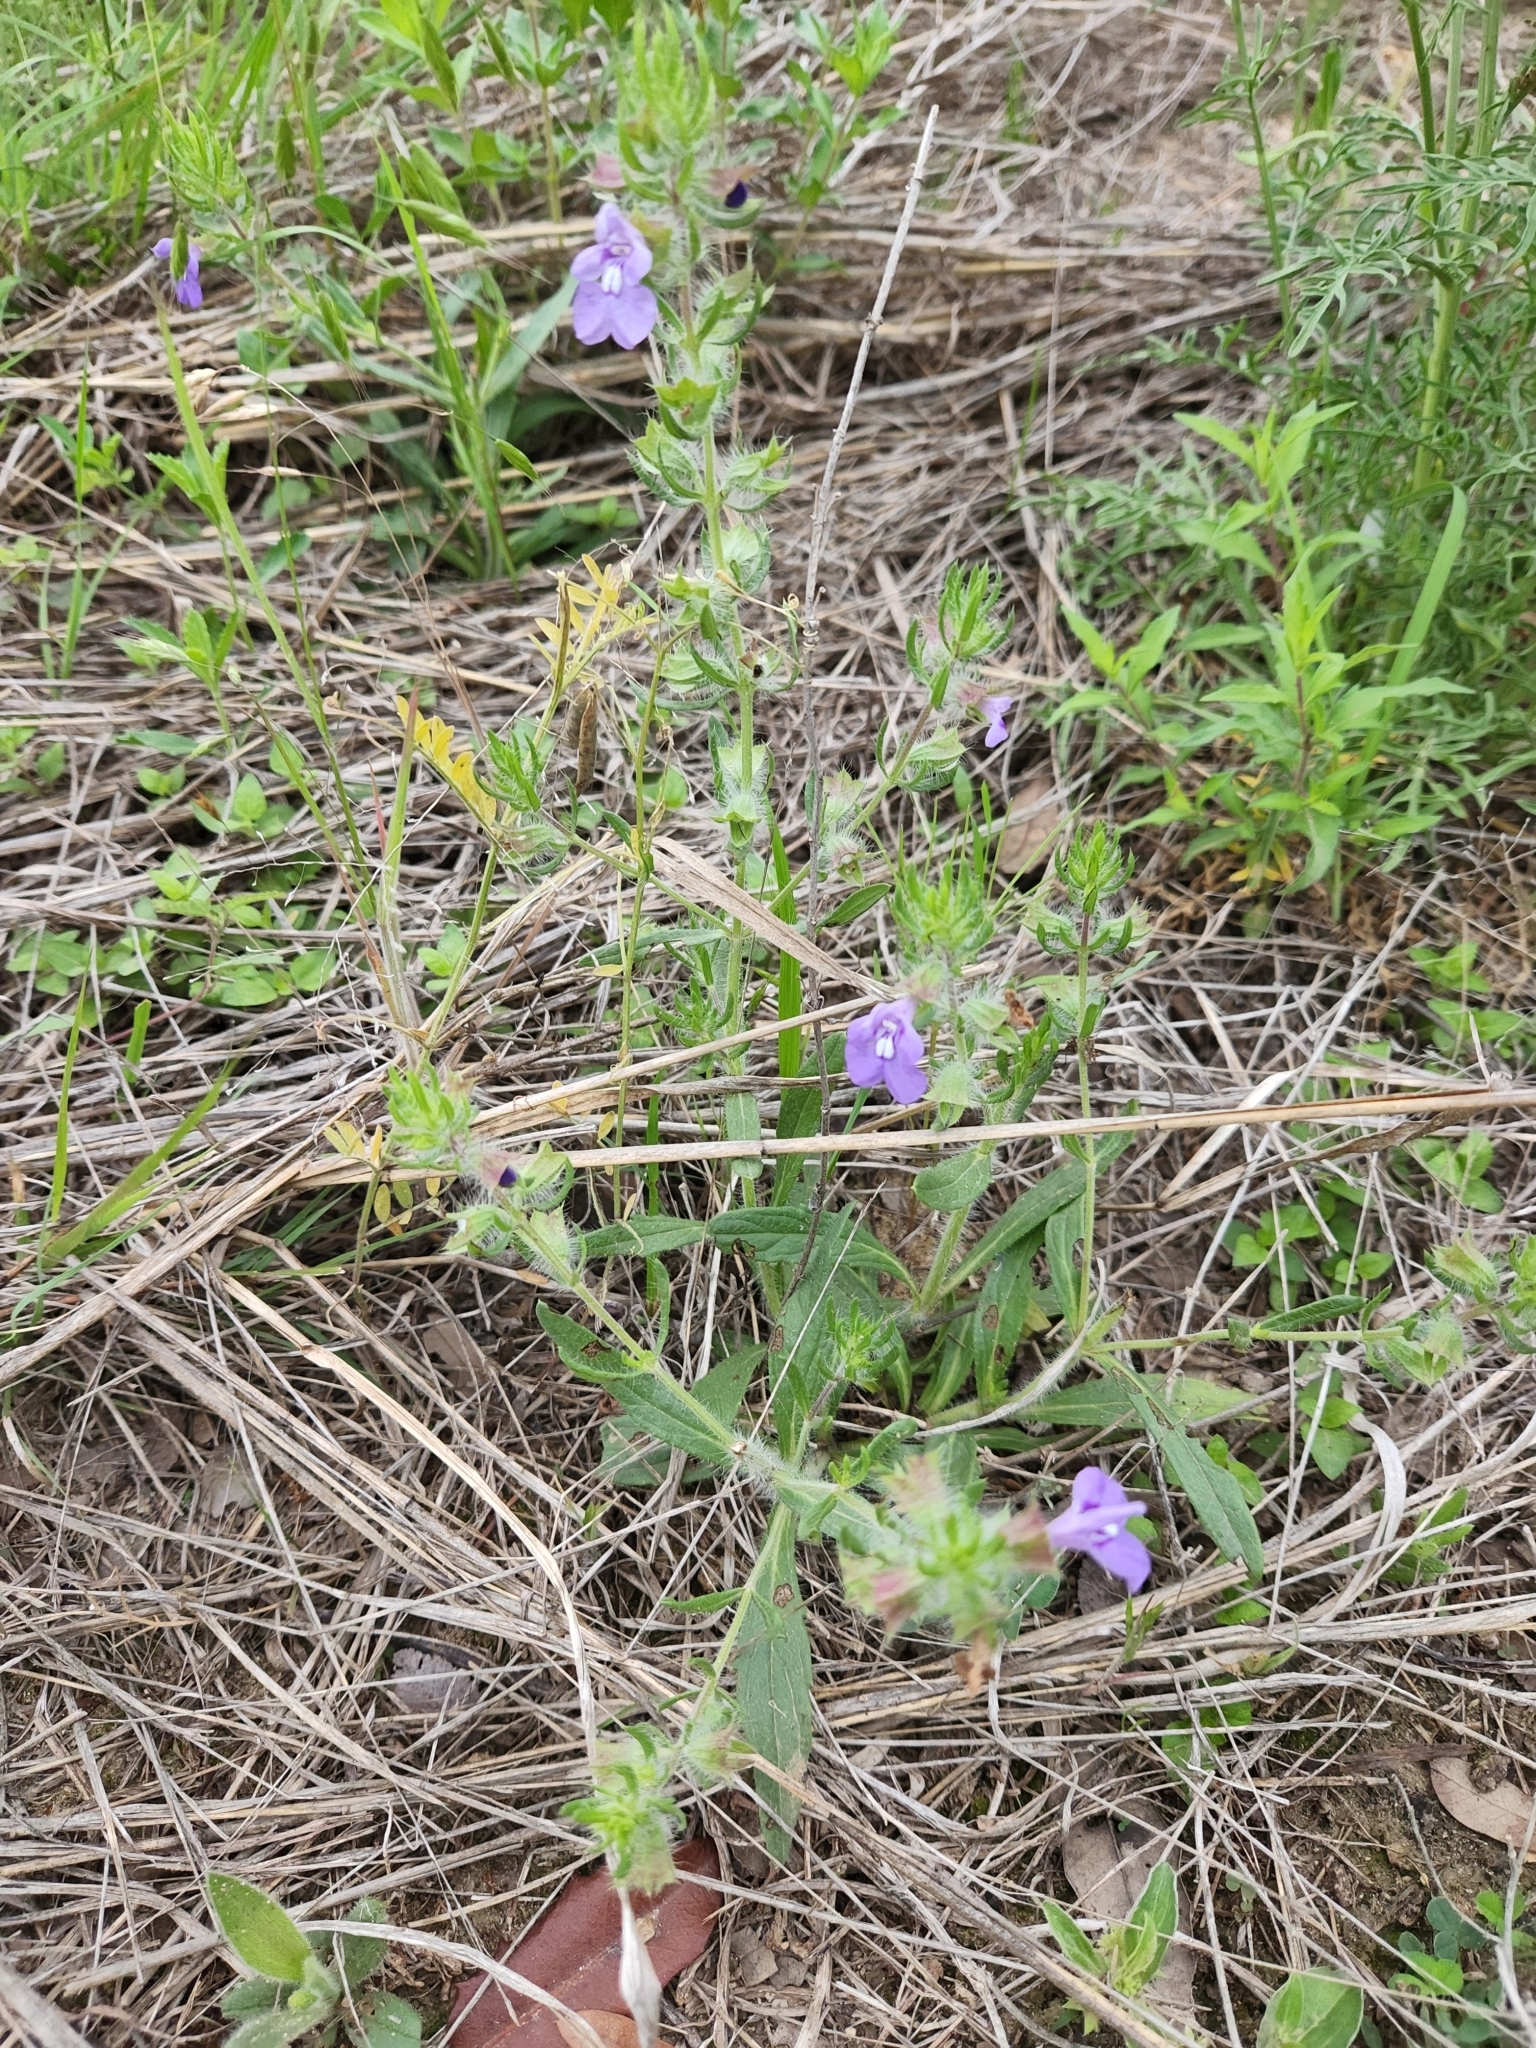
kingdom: Plantae
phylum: Tracheophyta
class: Magnoliopsida
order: Lamiales
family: Lamiaceae
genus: Salvia
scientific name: Salvia texana
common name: Texas sage
